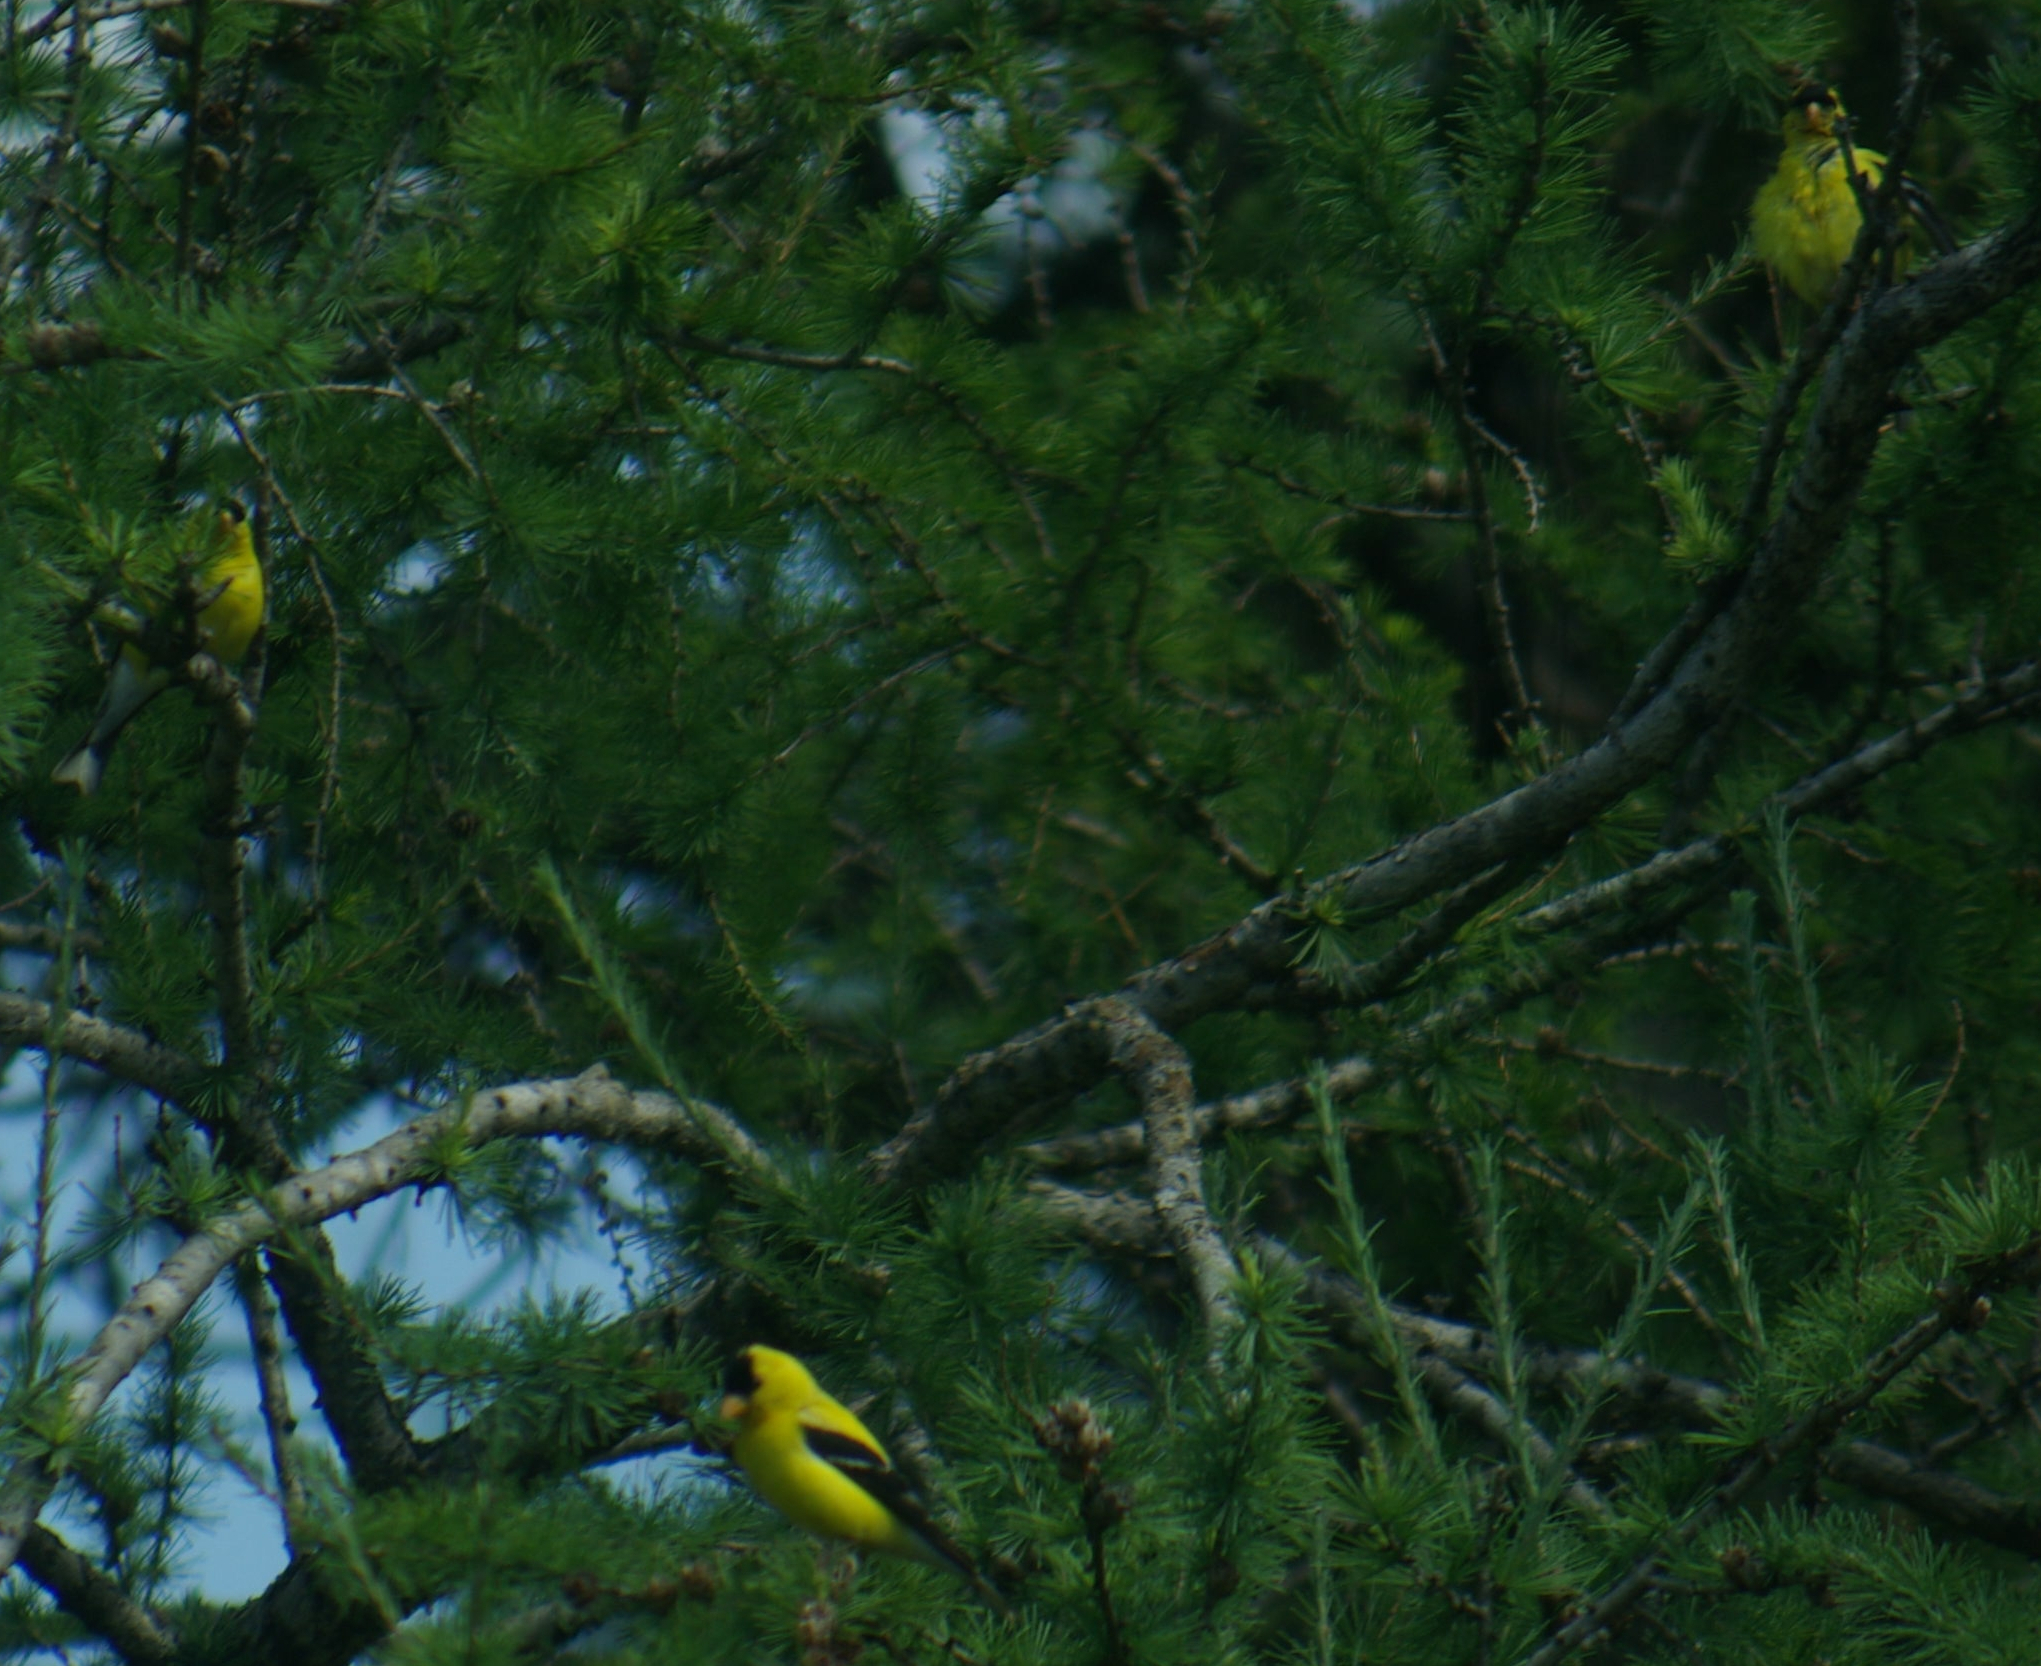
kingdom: Animalia
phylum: Chordata
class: Aves
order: Passeriformes
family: Fringillidae
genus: Spinus
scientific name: Spinus tristis
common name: American goldfinch
